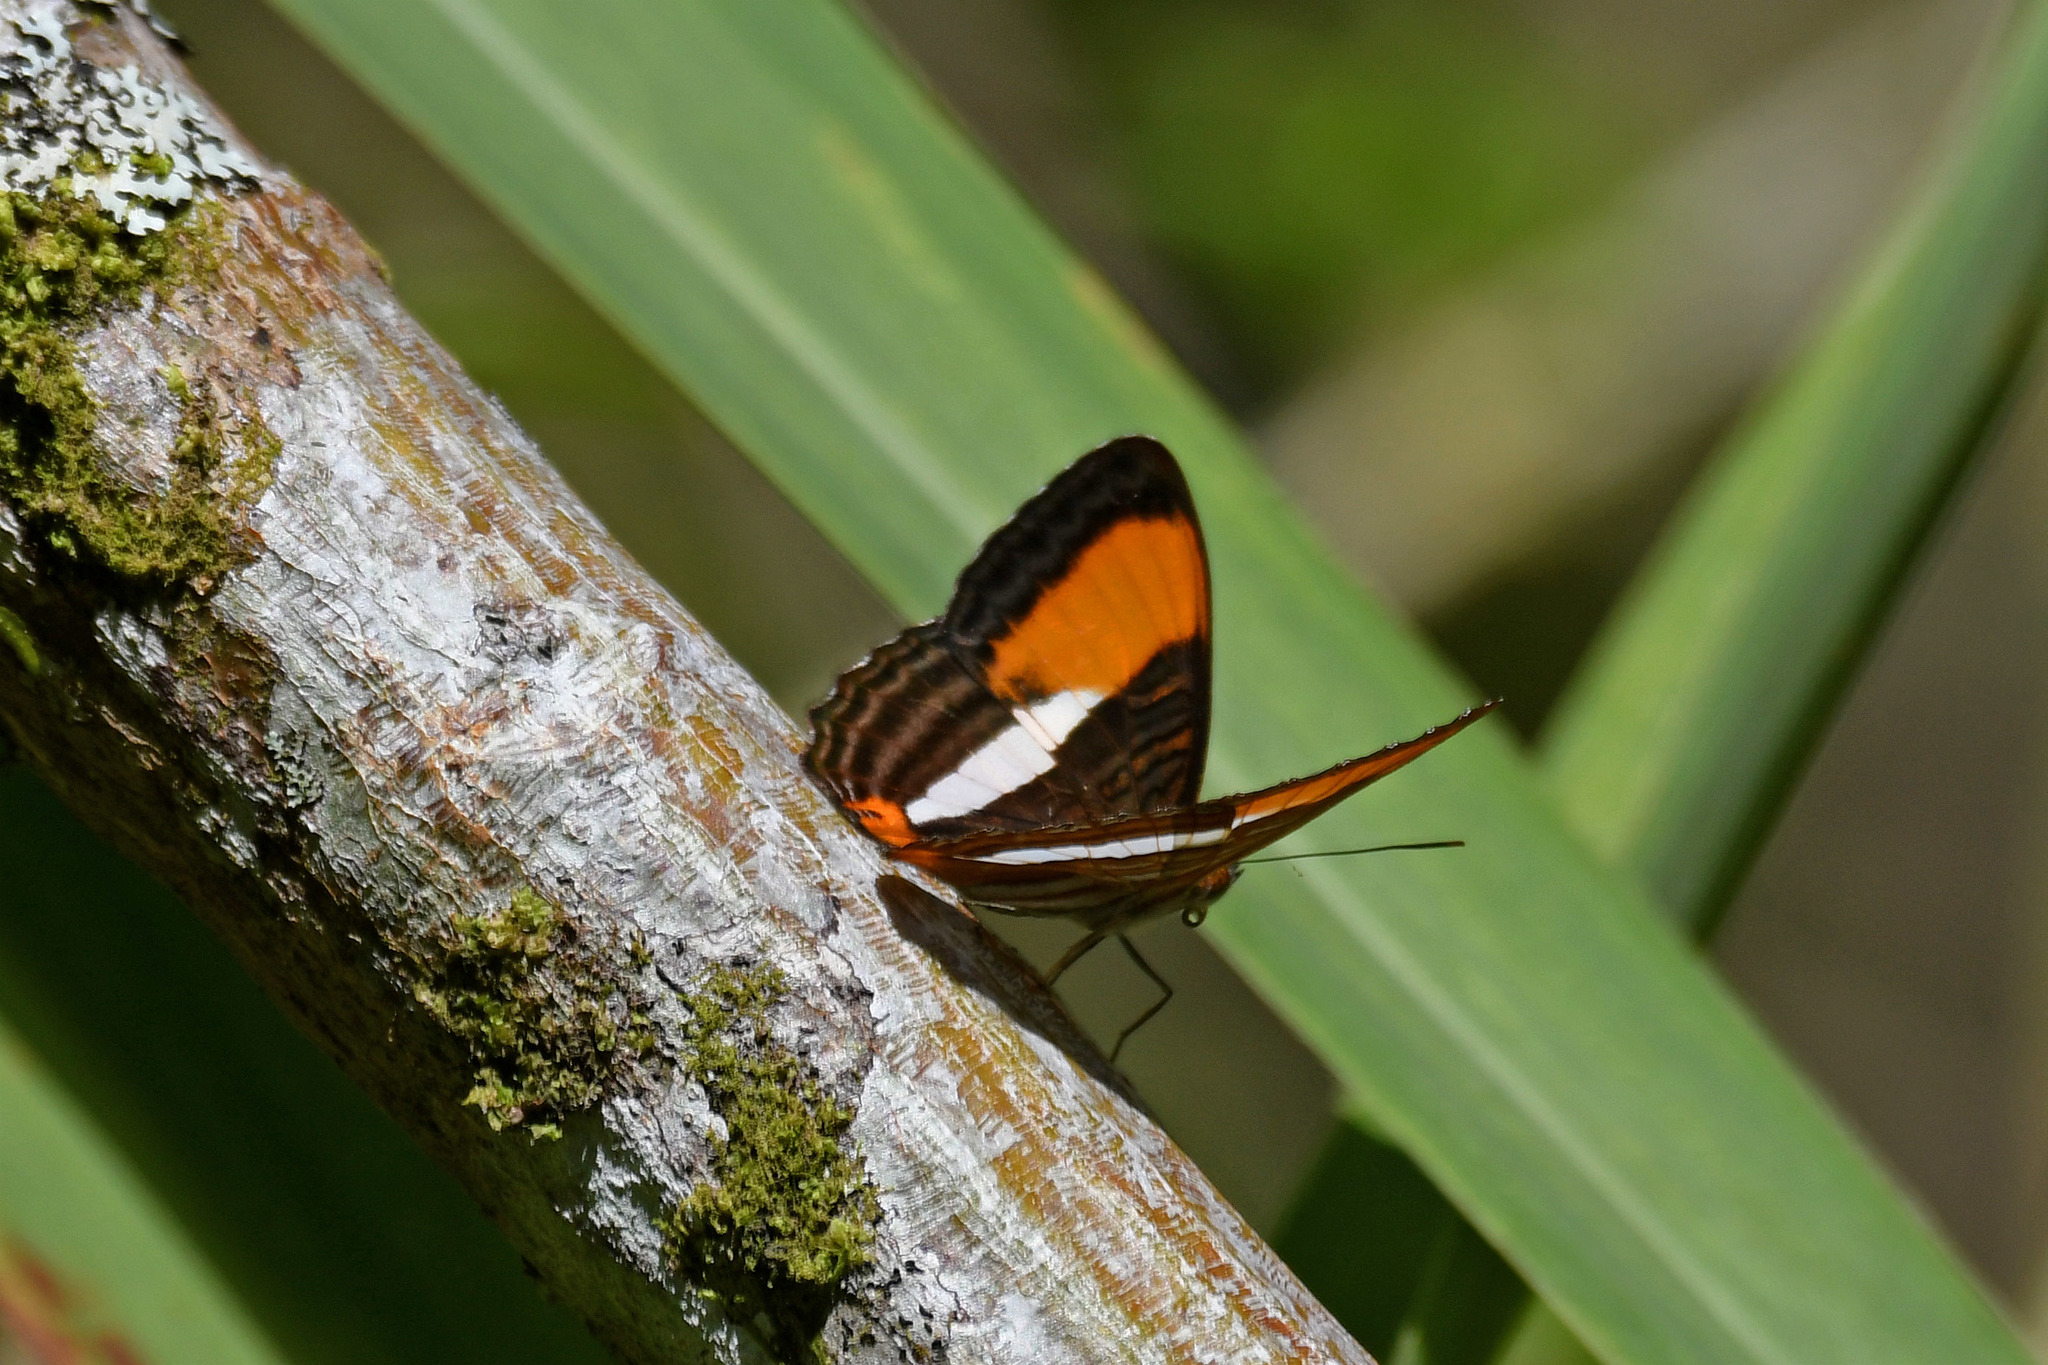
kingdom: Animalia
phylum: Arthropoda
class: Insecta
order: Lepidoptera
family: Nymphalidae
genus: Limenitis
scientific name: Limenitis cytherea
